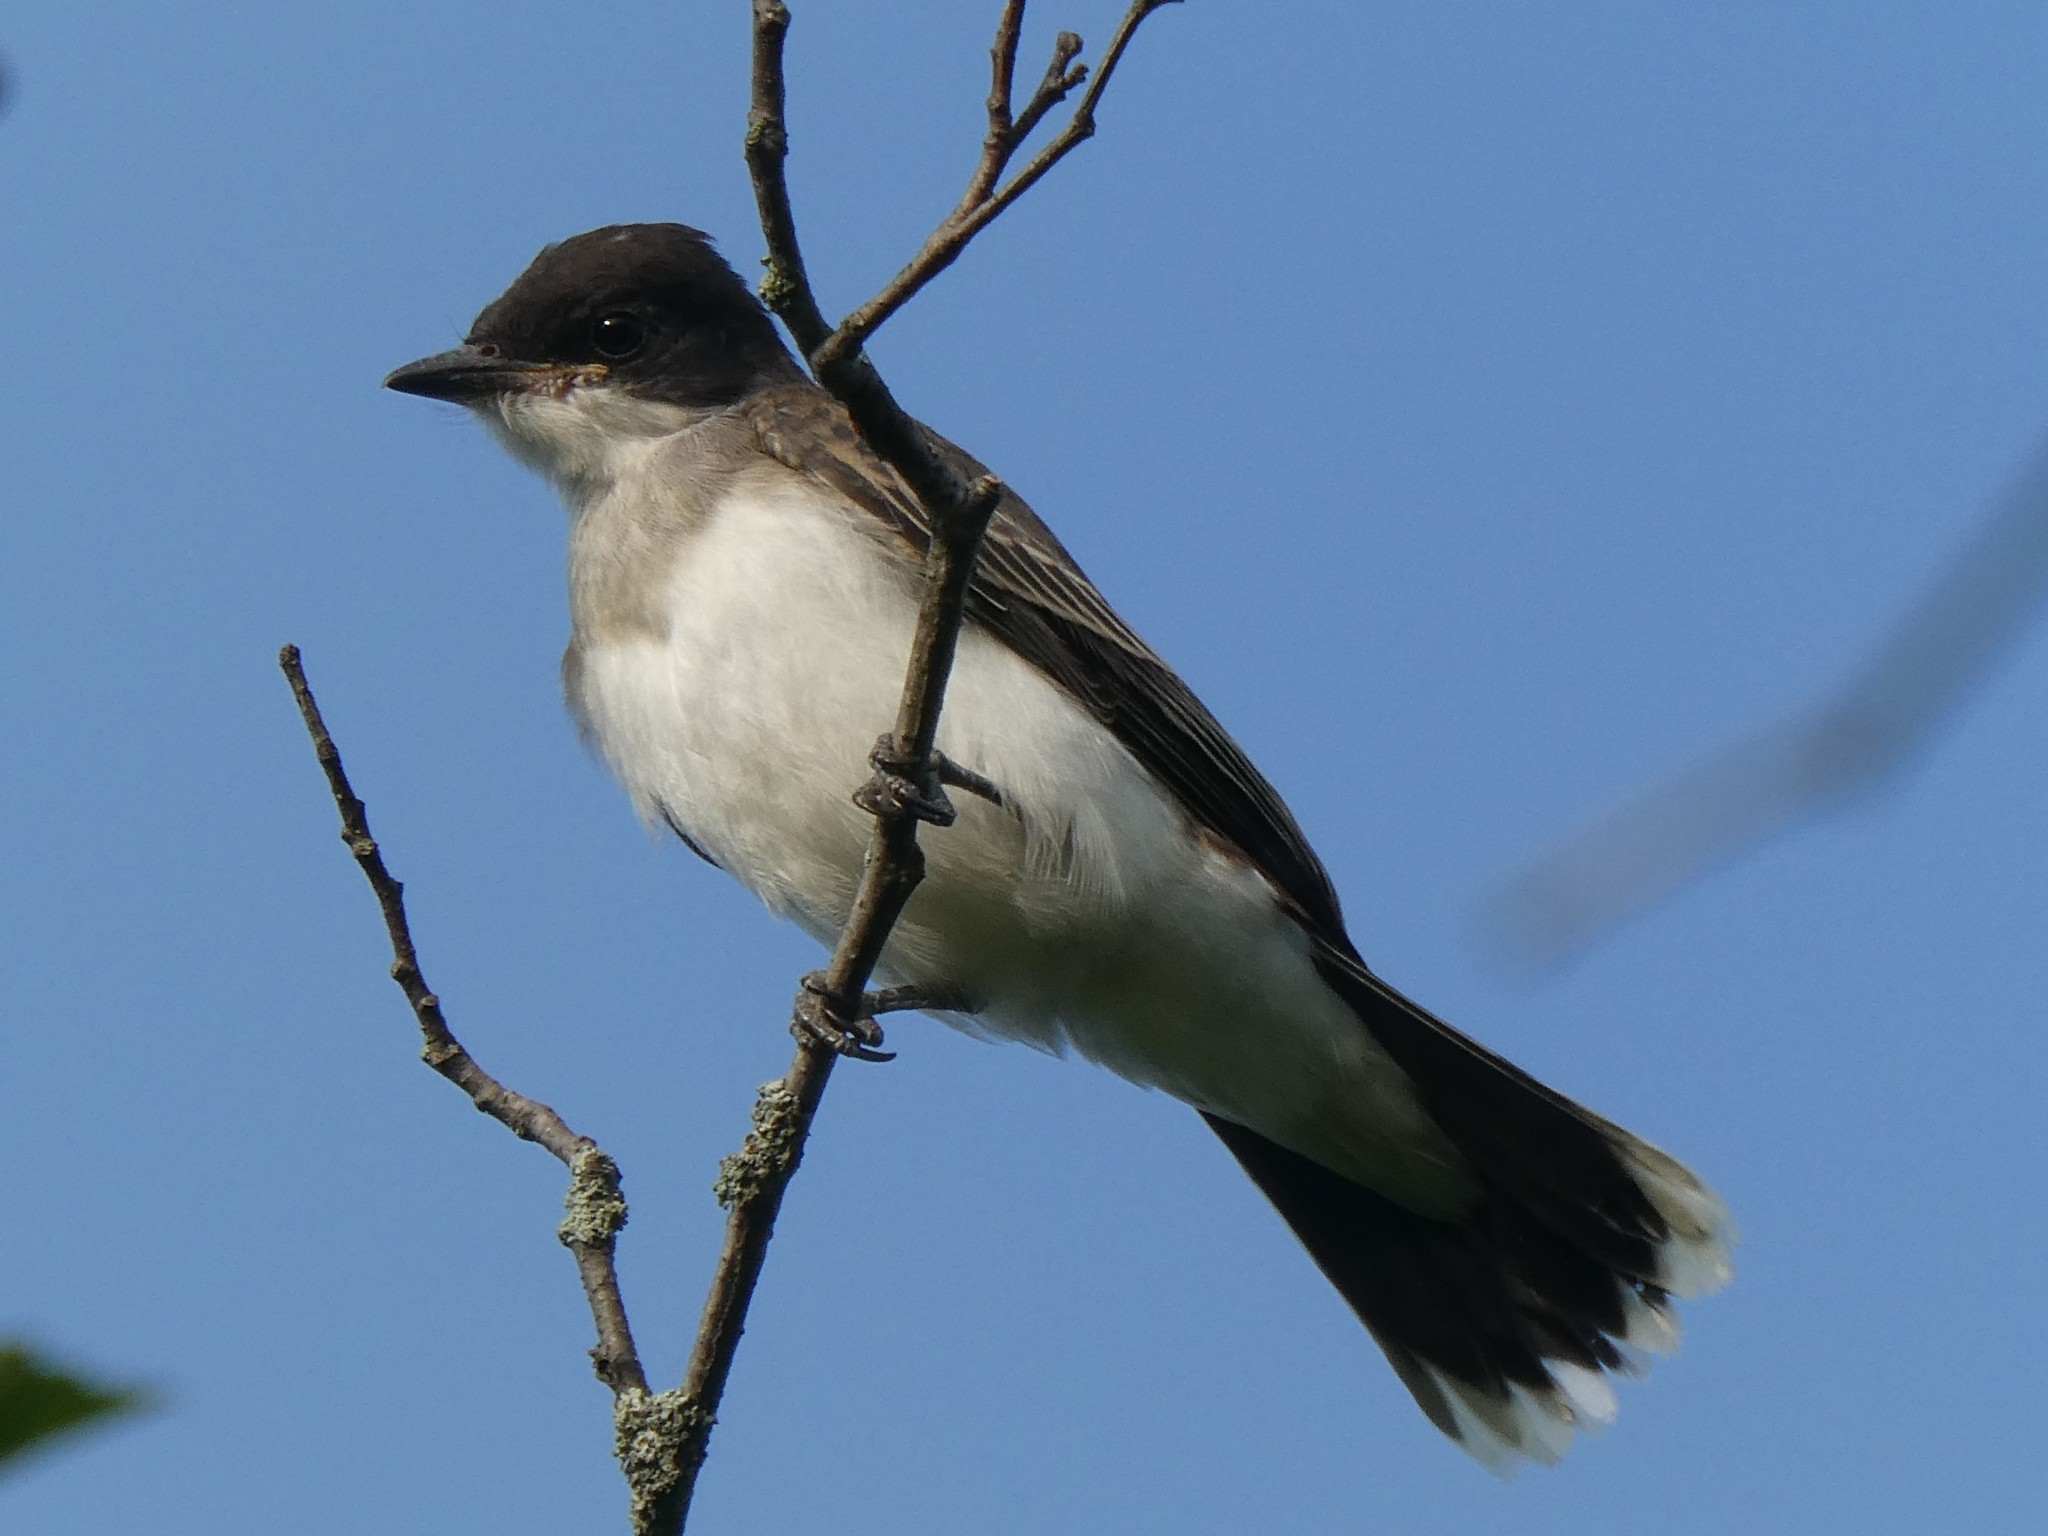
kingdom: Animalia
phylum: Chordata
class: Aves
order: Passeriformes
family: Tyrannidae
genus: Tyrannus
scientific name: Tyrannus tyrannus
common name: Eastern kingbird
